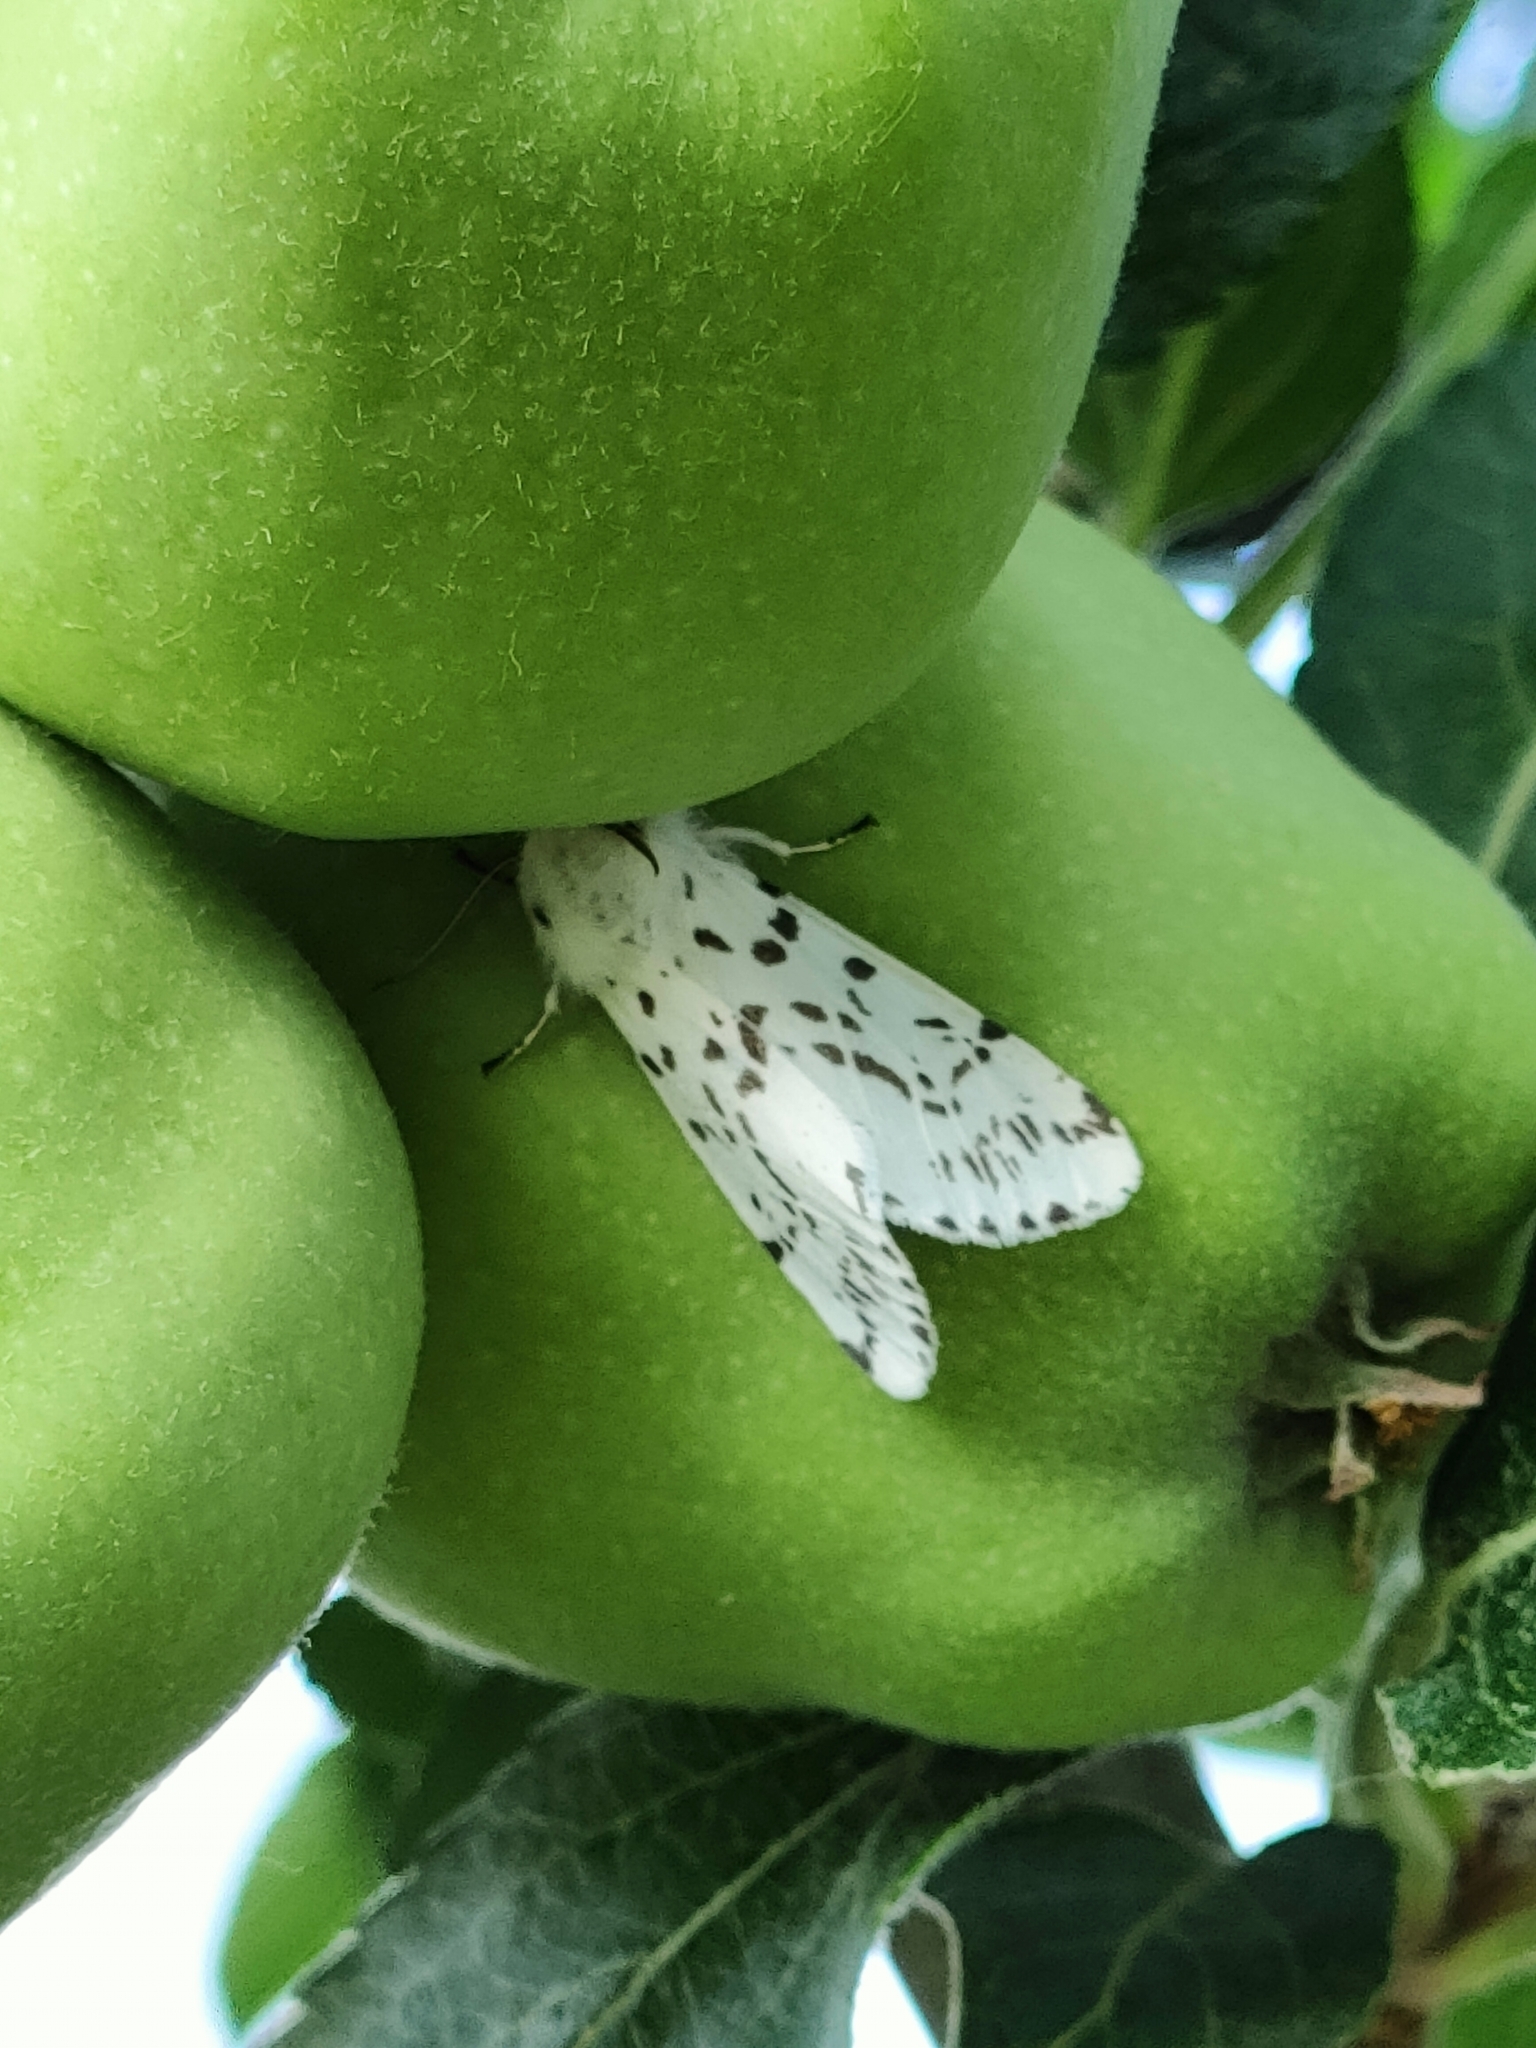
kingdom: Animalia
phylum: Arthropoda
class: Insecta
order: Lepidoptera
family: Erebidae
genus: Hyphantria
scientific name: Hyphantria cunea
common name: American white moth
